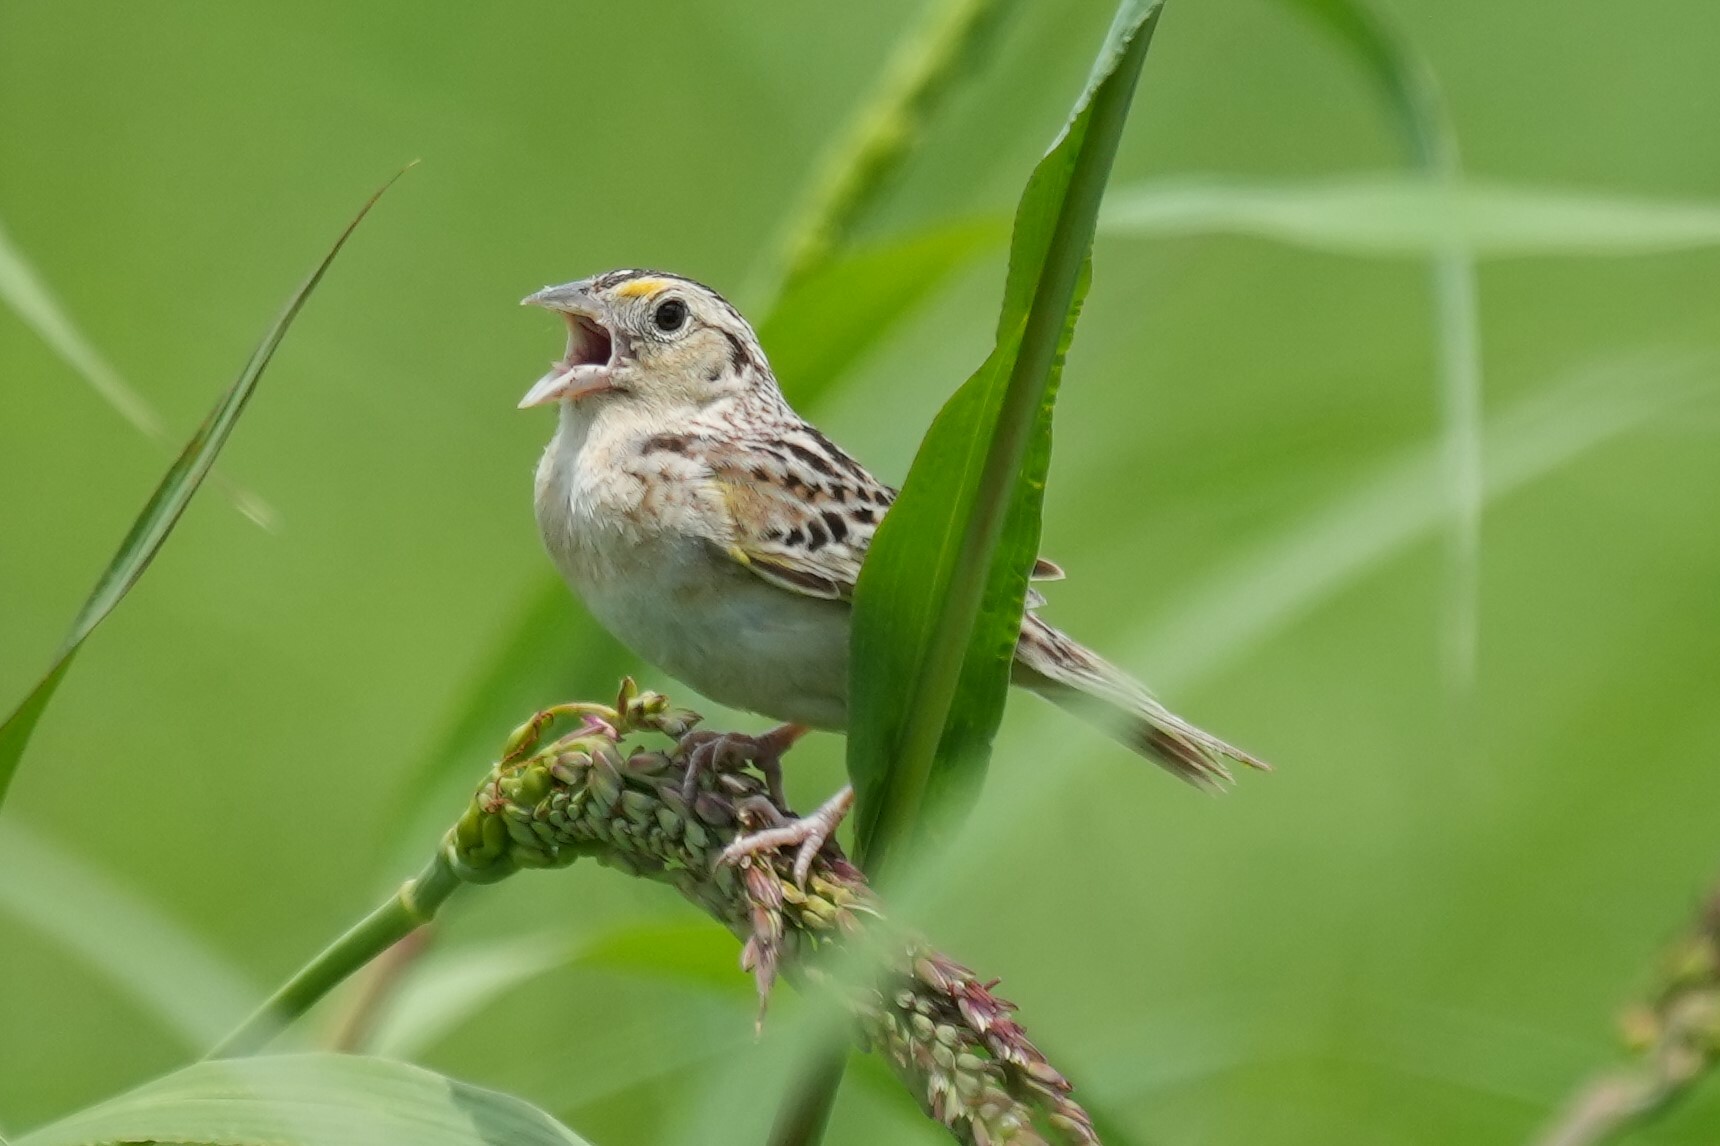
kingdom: Animalia
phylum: Chordata
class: Aves
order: Passeriformes
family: Passerellidae
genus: Ammodramus
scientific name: Ammodramus savannarum
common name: Grasshopper sparrow
